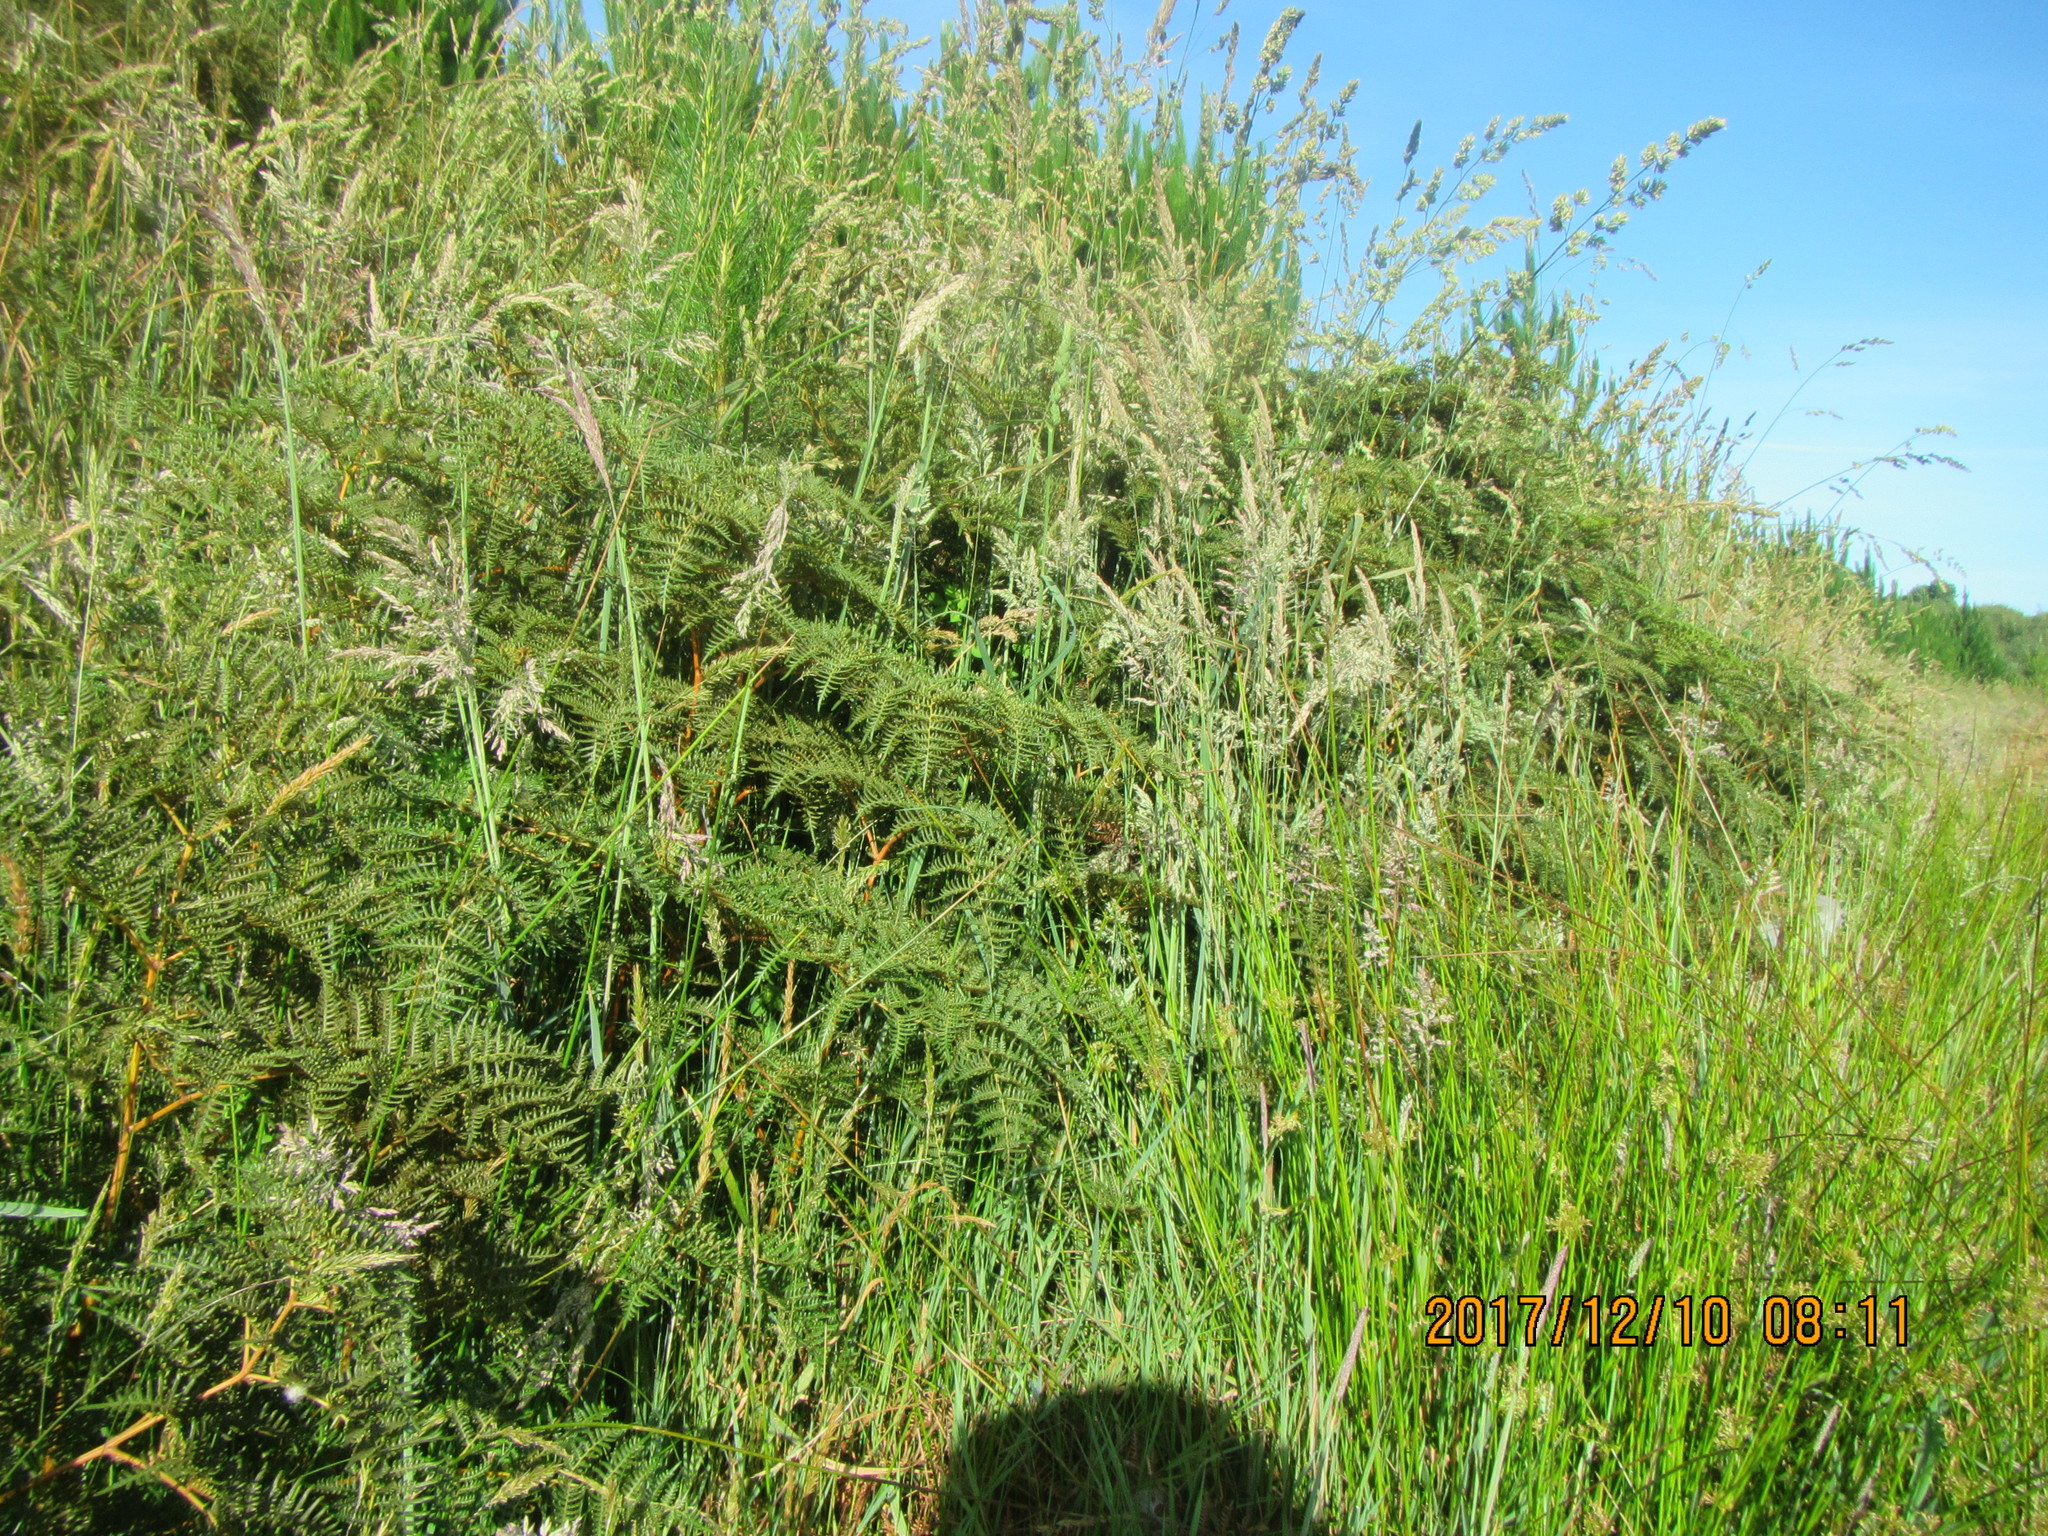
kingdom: Plantae
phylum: Tracheophyta
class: Polypodiopsida
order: Polypodiales
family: Dennstaedtiaceae
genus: Pteridium
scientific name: Pteridium esculentum
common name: Bracken fern
